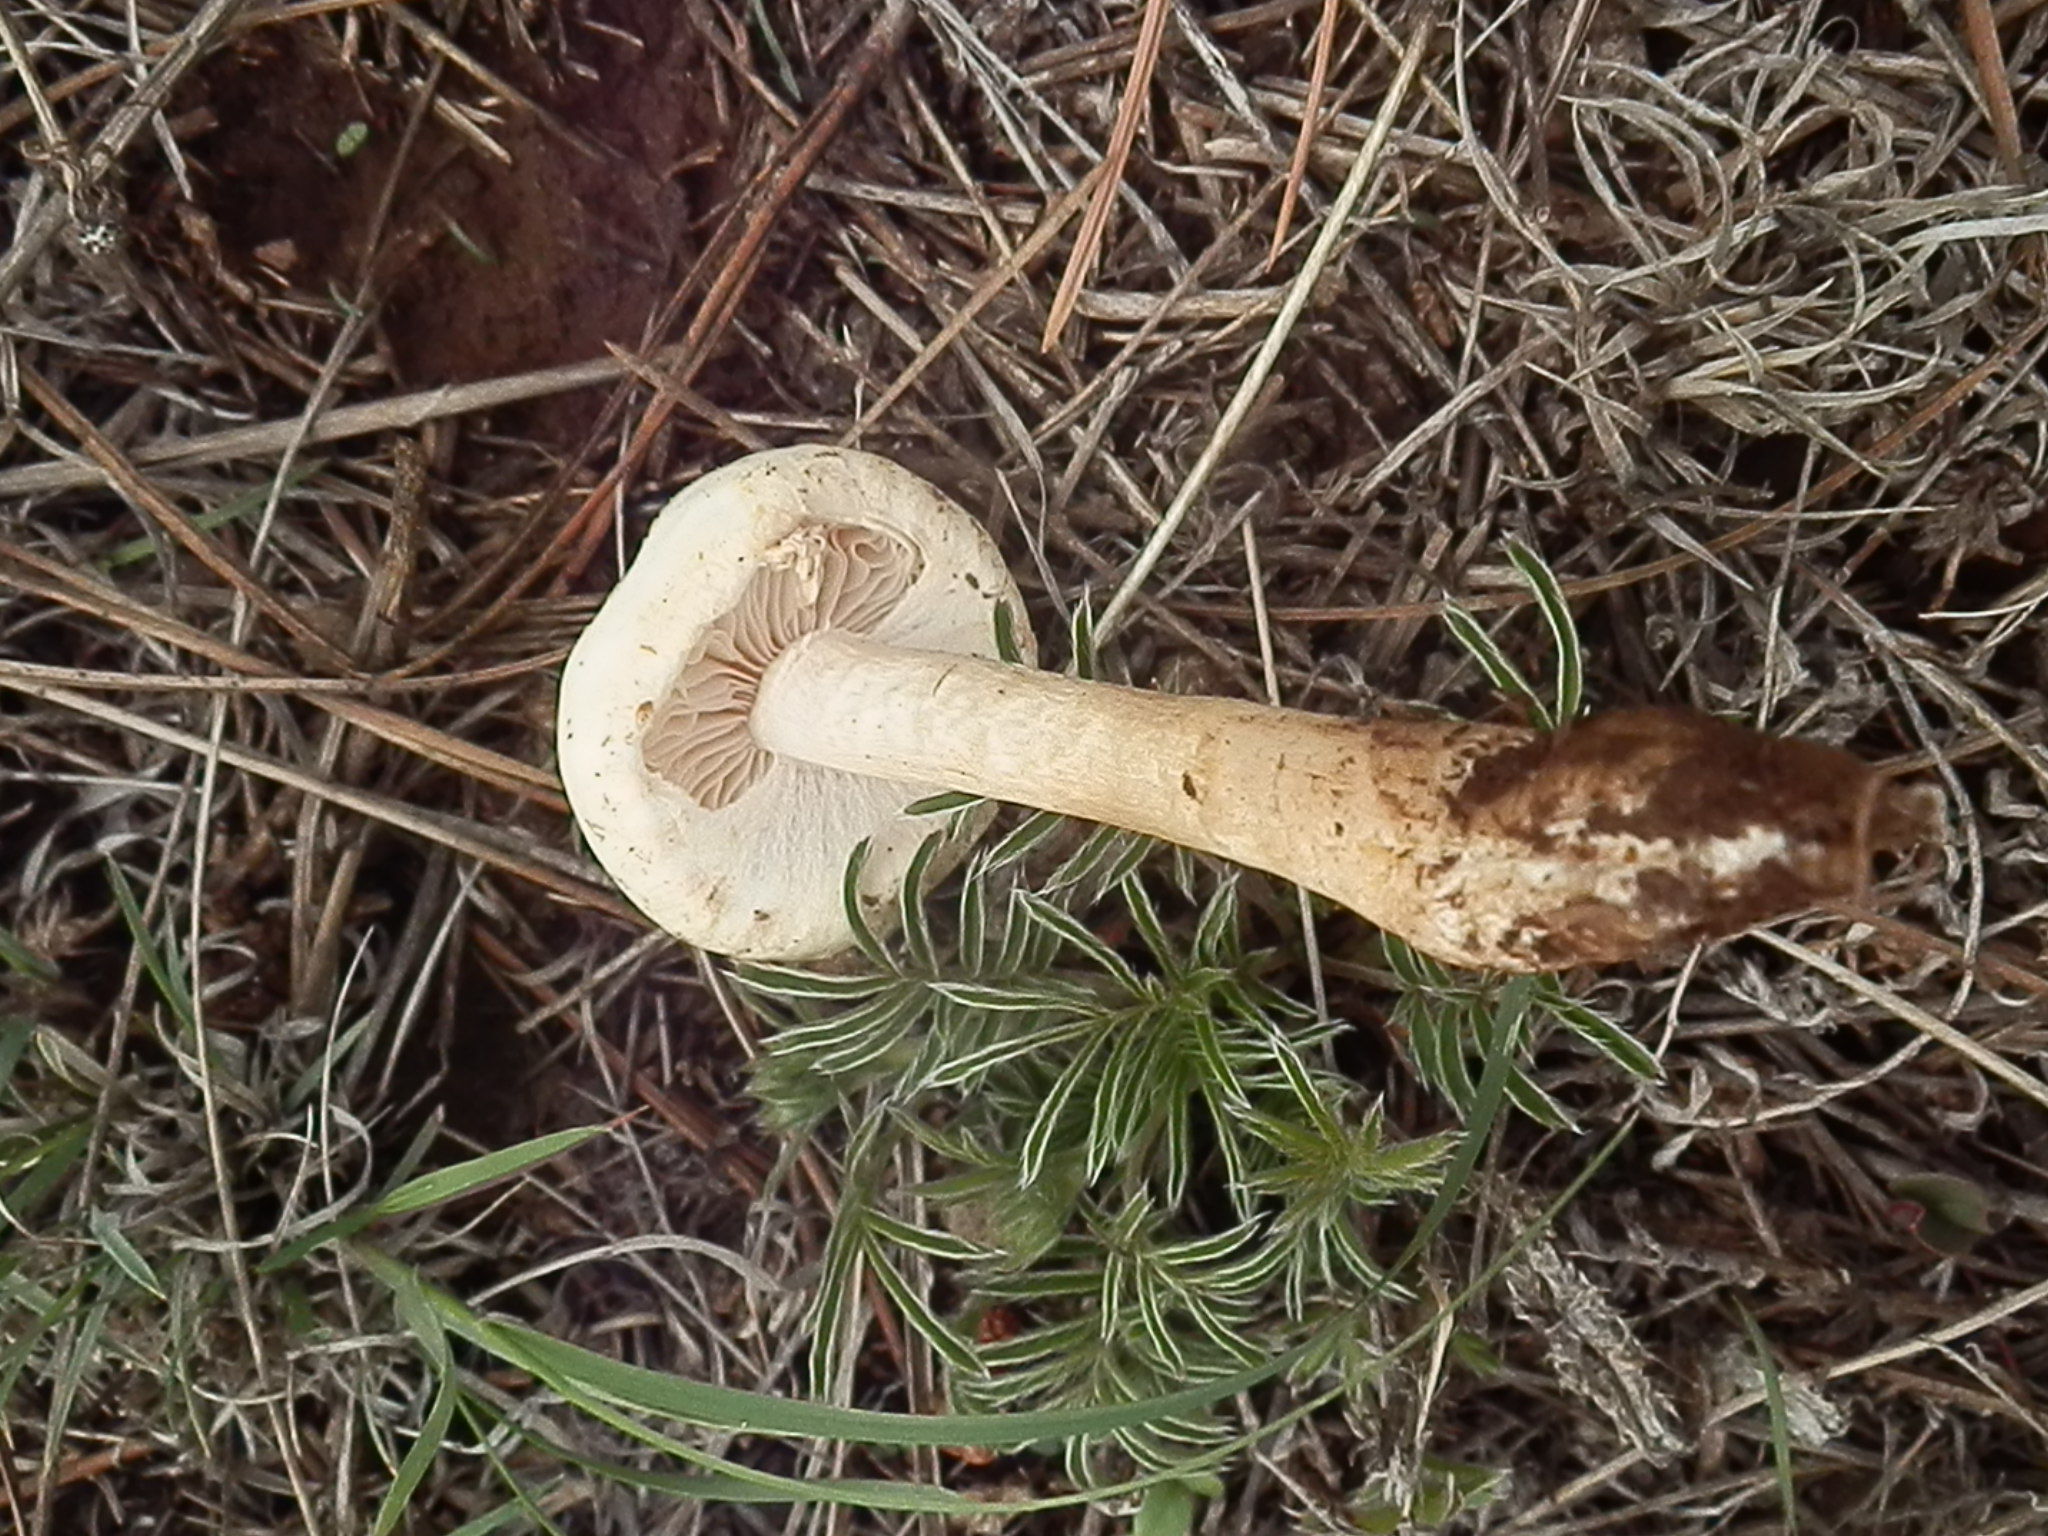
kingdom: Fungi
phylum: Basidiomycota
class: Agaricomycetes
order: Agaricales
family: Agaricaceae
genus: Agaricus
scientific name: Agaricus arvensis
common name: Horse mushroom
